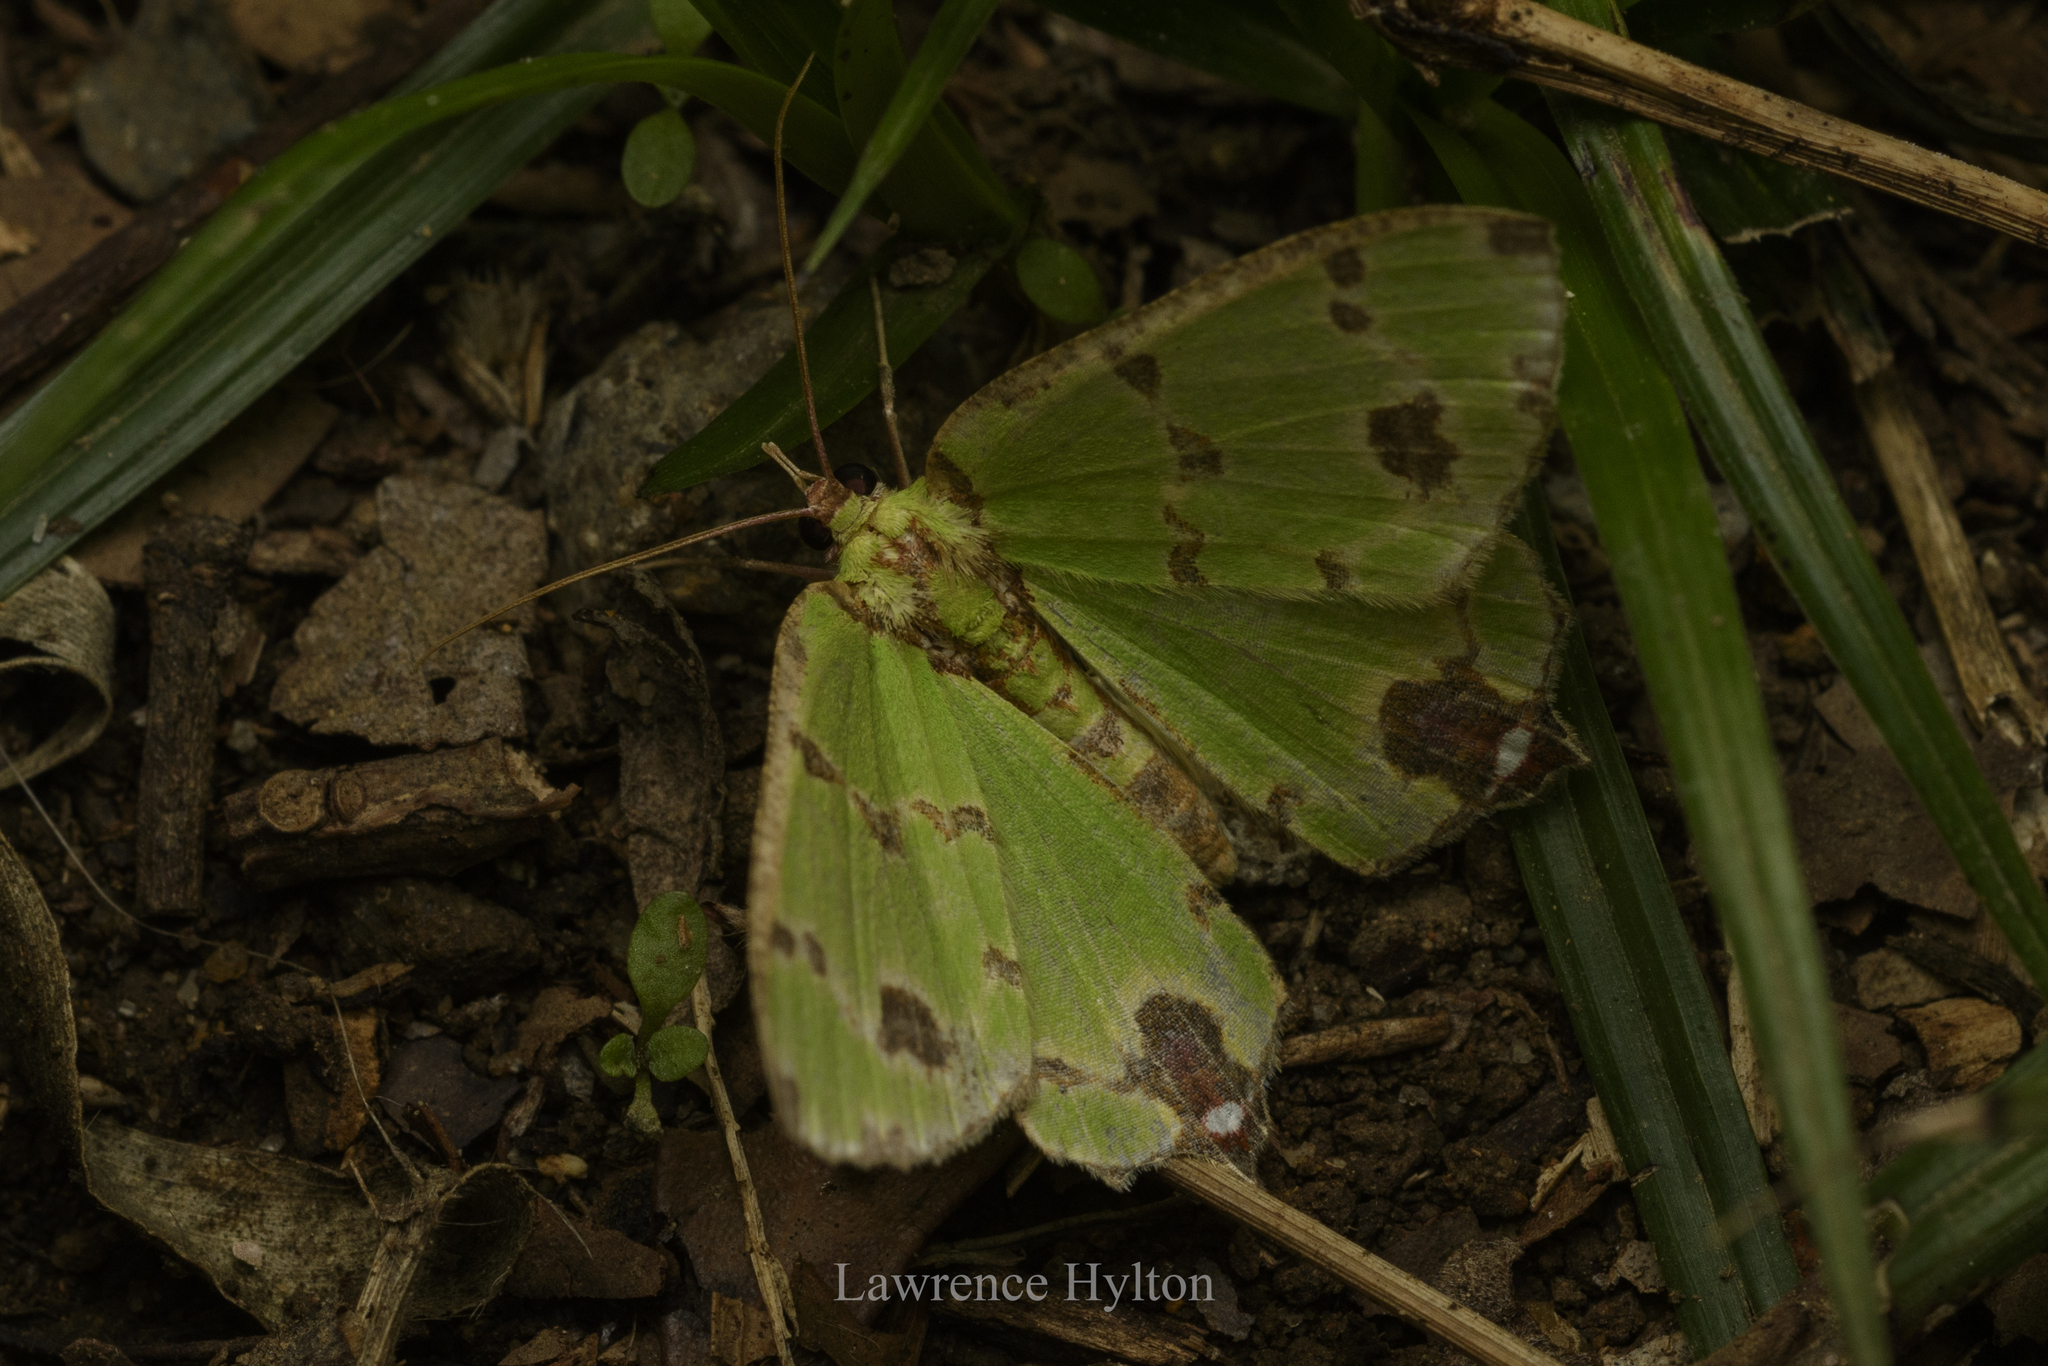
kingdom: Animalia
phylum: Arthropoda
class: Insecta
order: Lepidoptera
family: Geometridae
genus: Agathia
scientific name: Agathia lycaenaria
